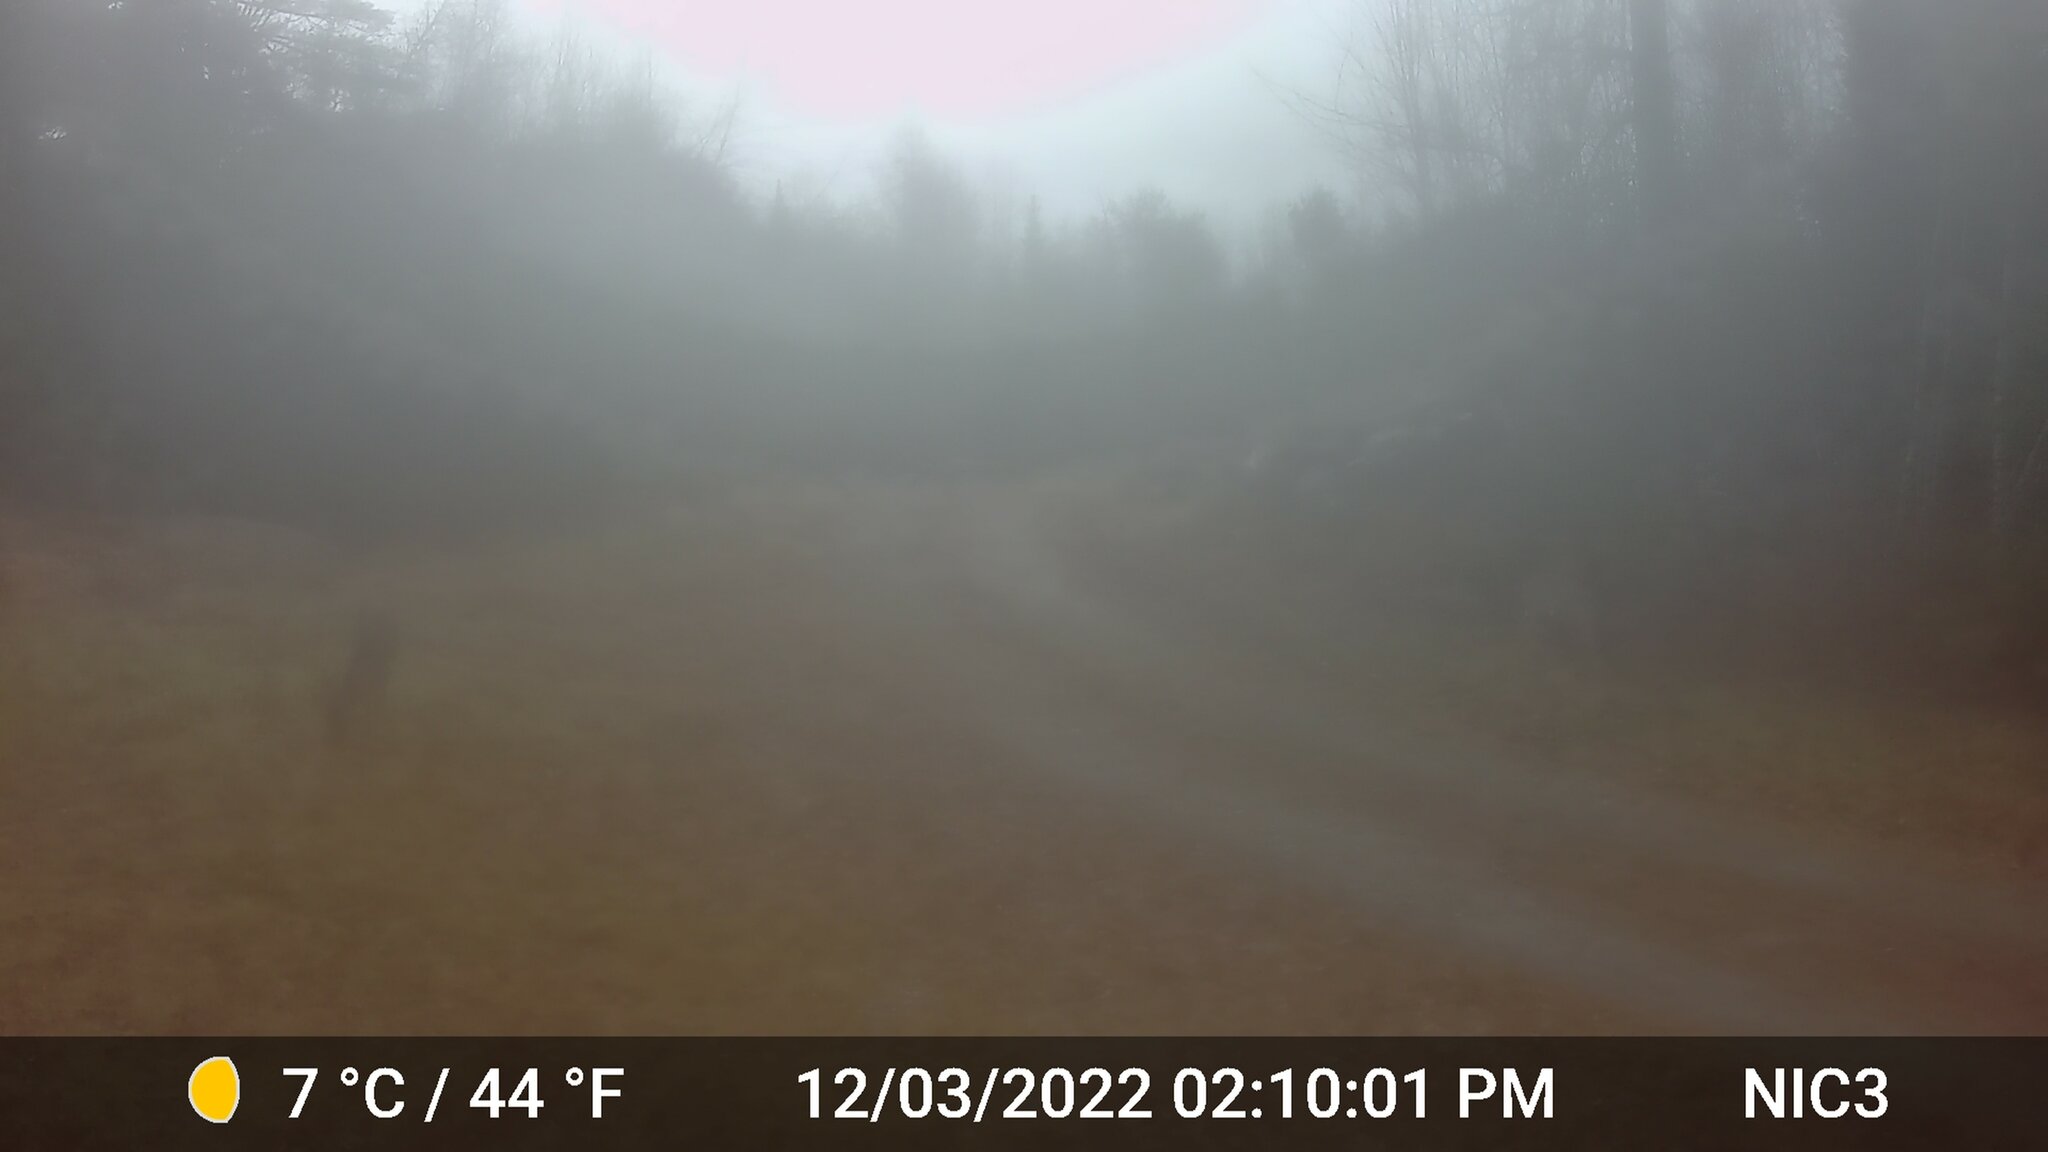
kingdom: Animalia
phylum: Chordata
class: Mammalia
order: Artiodactyla
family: Cervidae
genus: Odocoileus
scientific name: Odocoileus virginianus
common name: White-tailed deer
